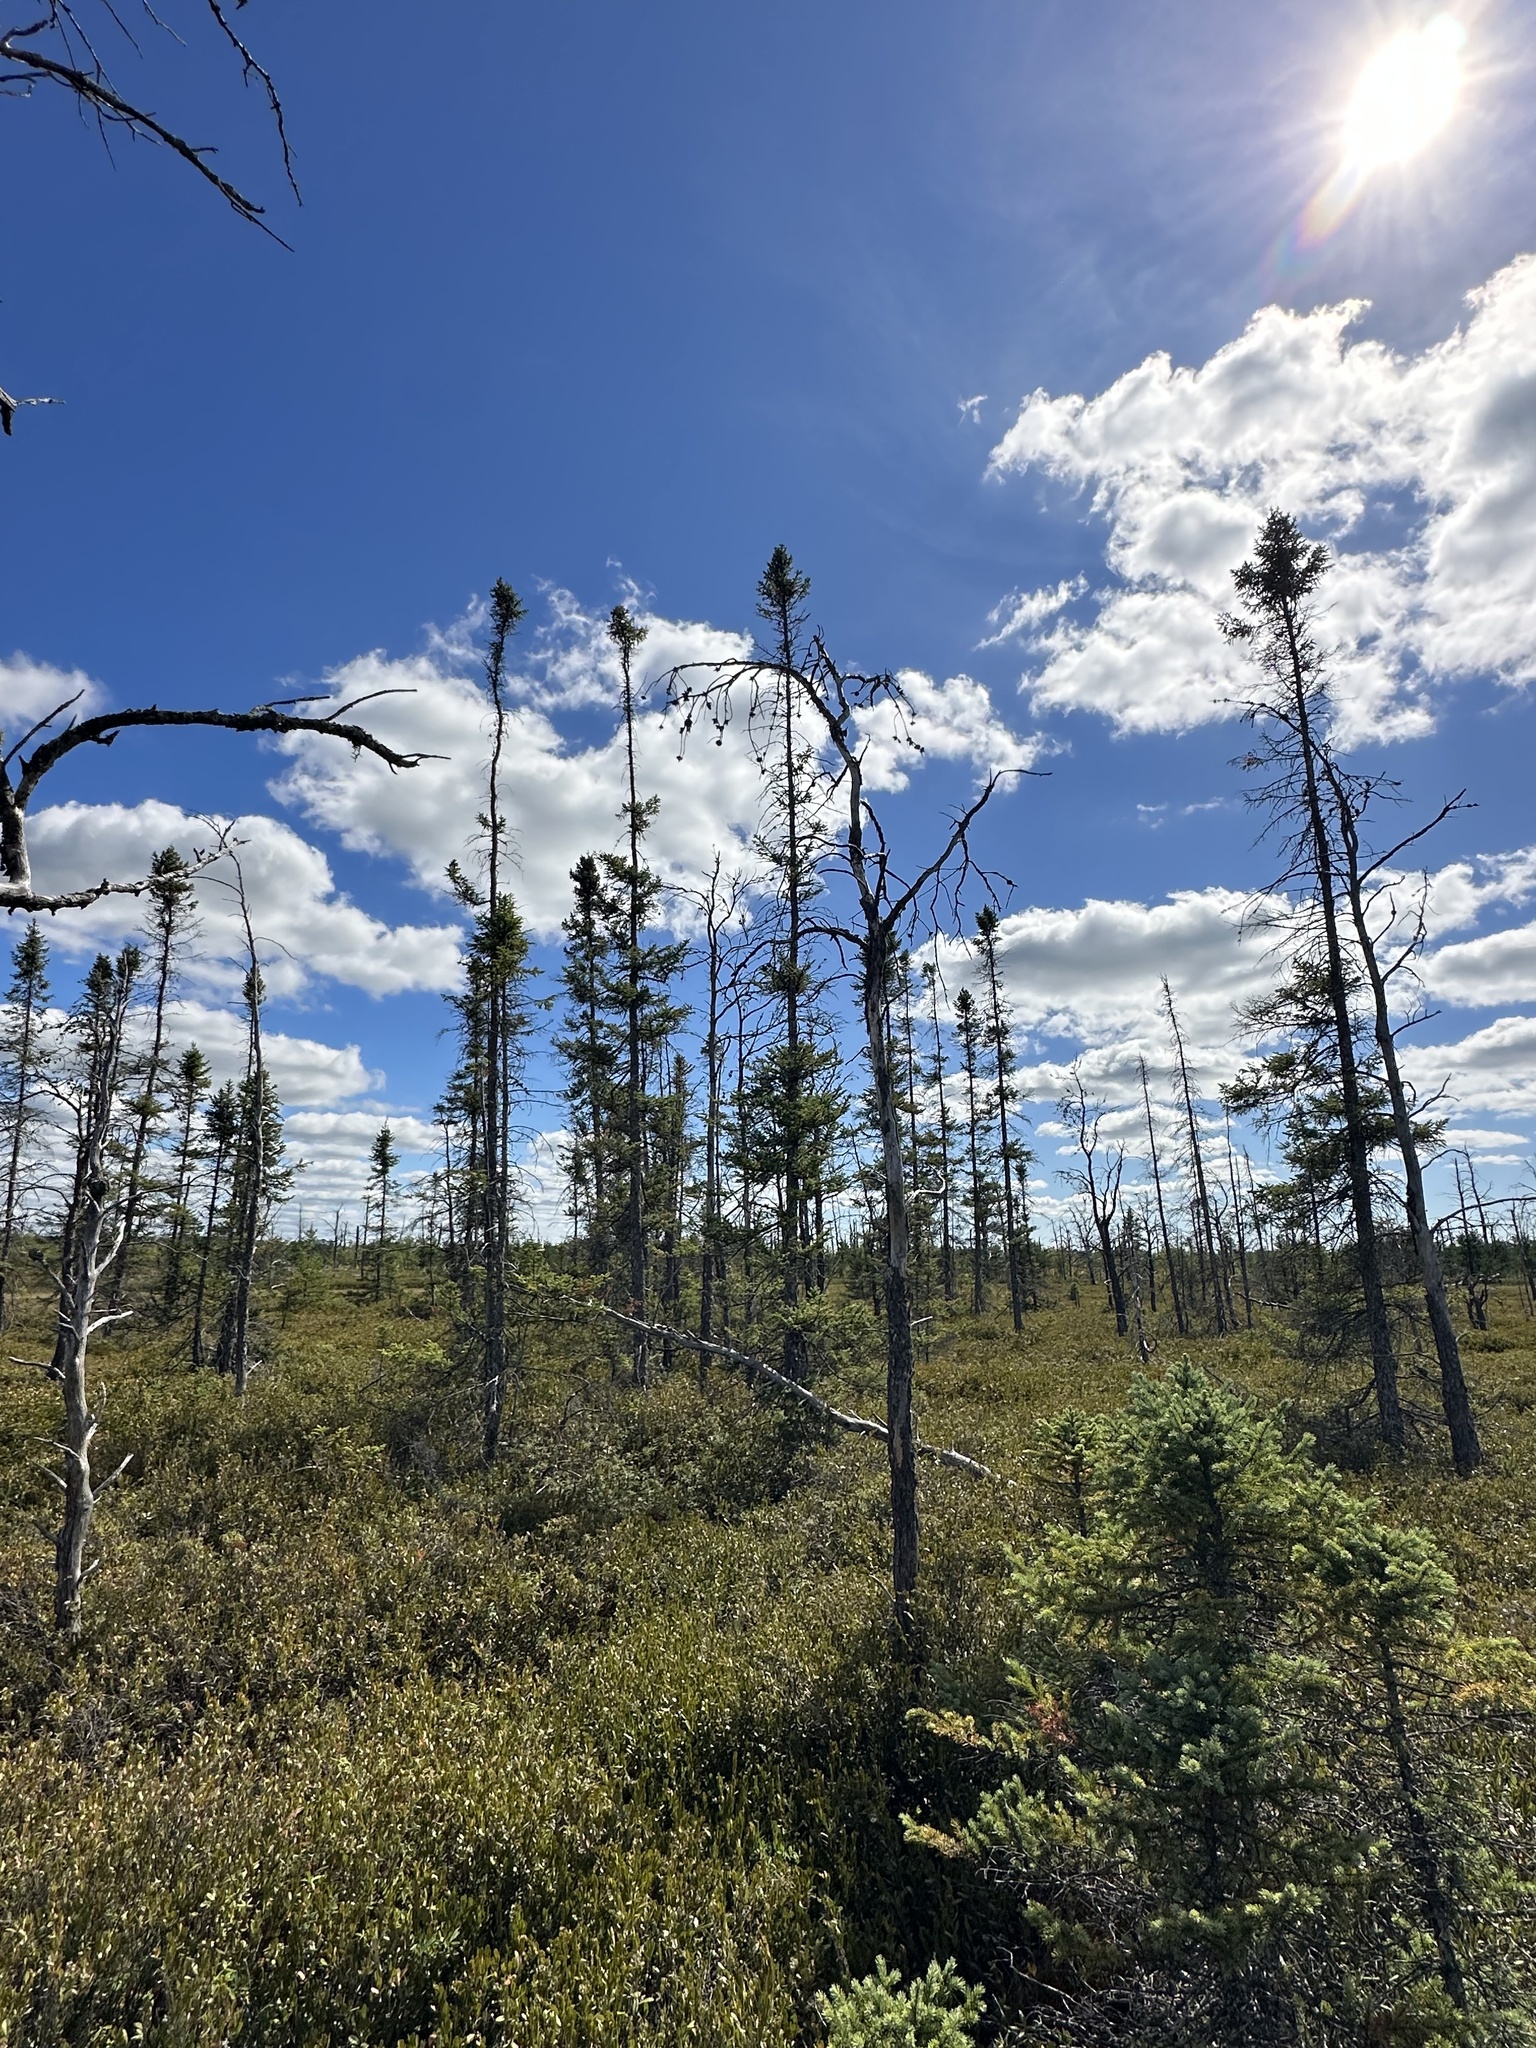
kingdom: Plantae
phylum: Tracheophyta
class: Pinopsida
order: Pinales
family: Pinaceae
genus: Picea
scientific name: Picea mariana
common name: Black spruce
